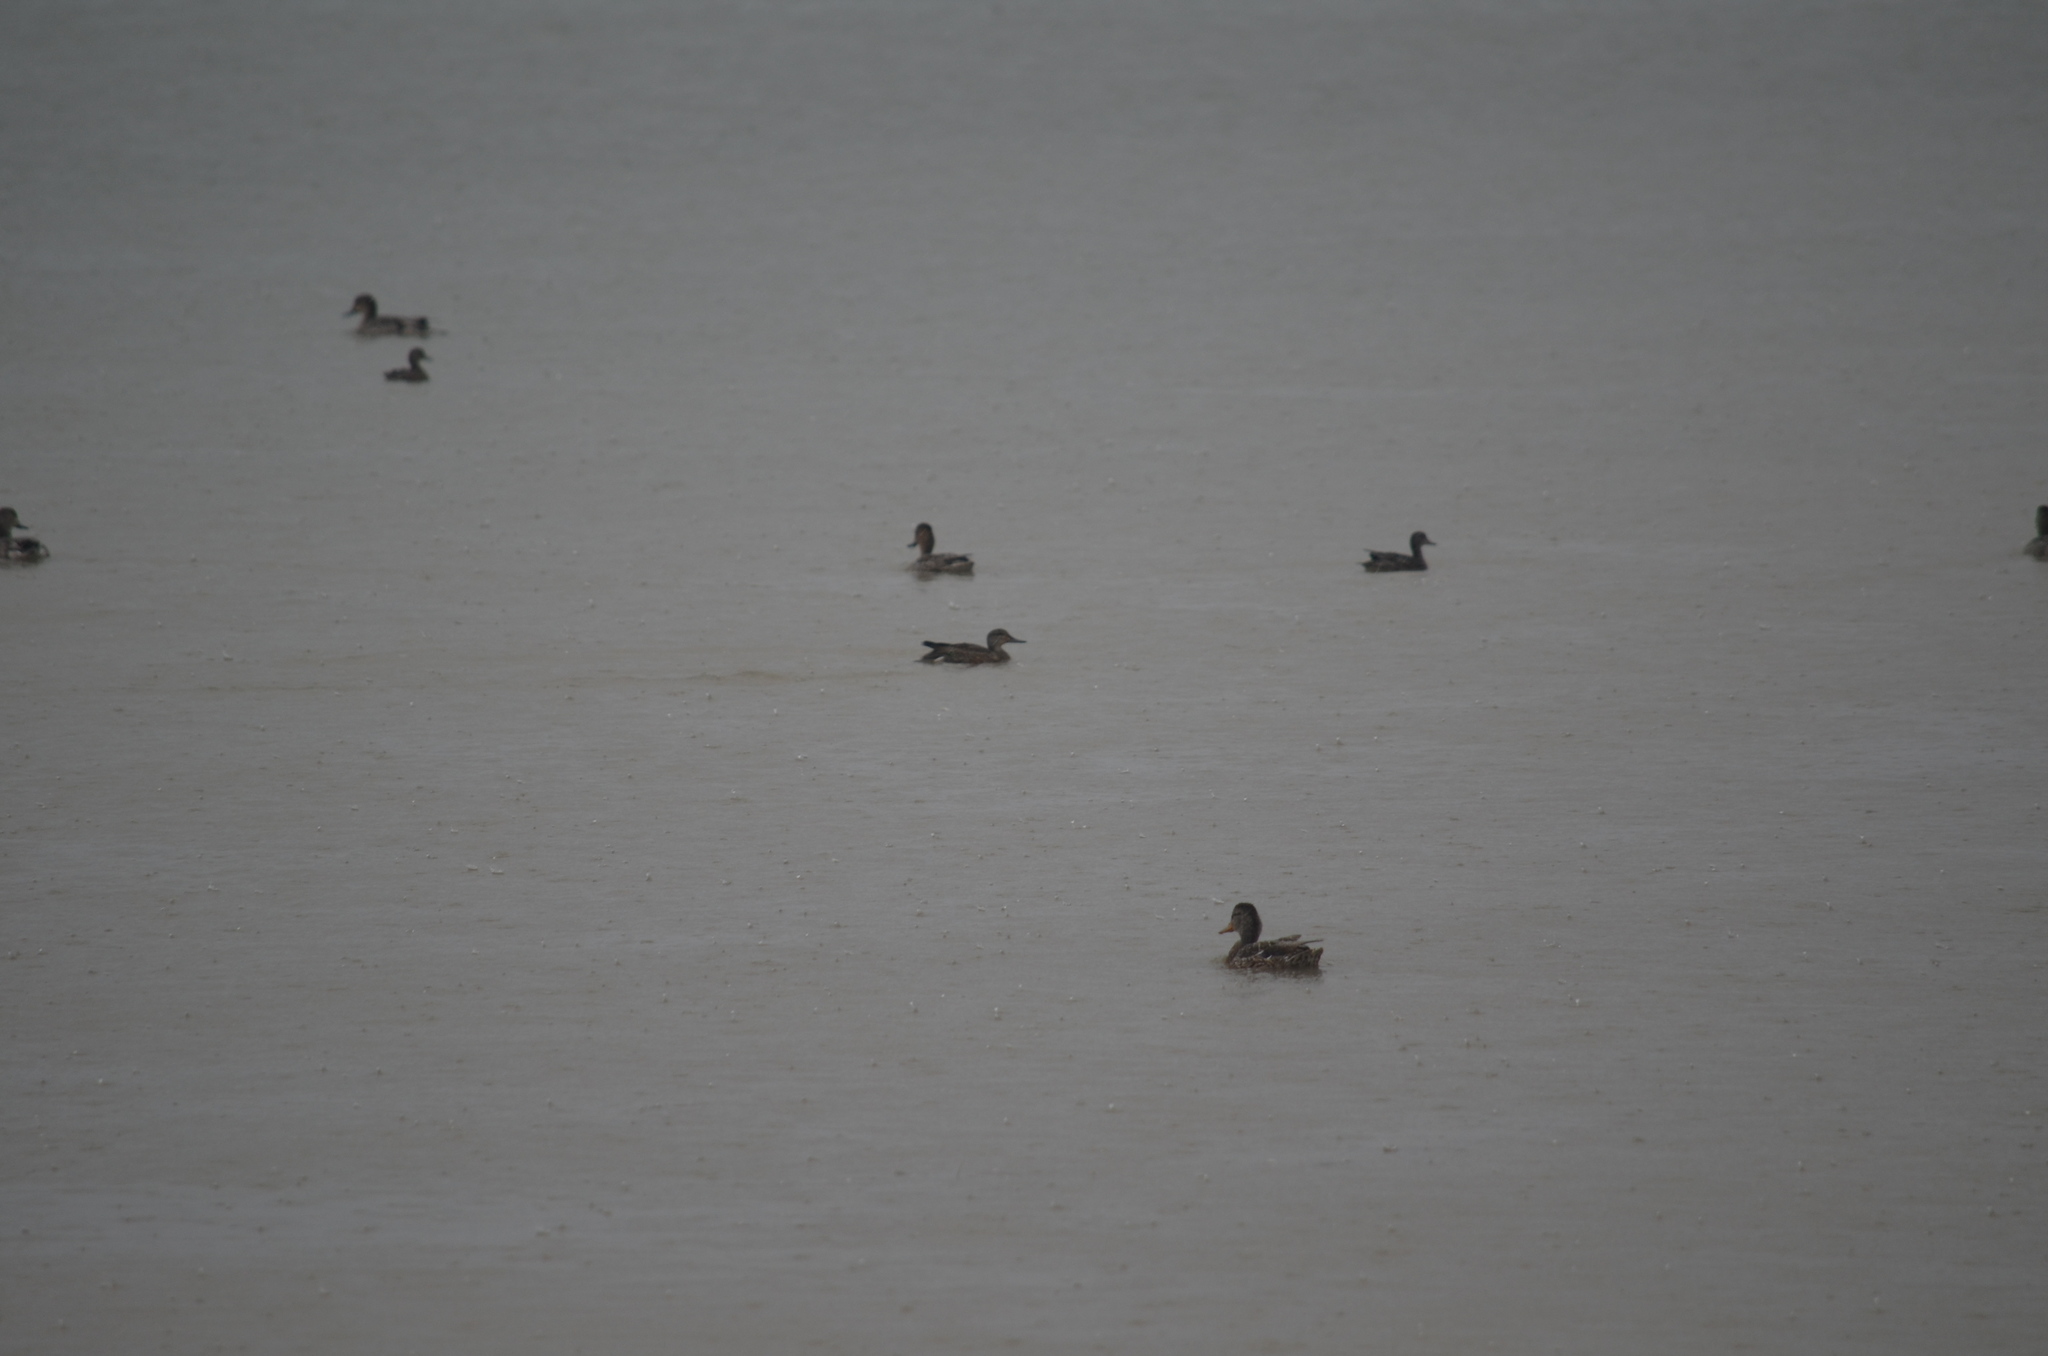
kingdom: Animalia
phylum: Chordata
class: Aves
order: Anseriformes
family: Anatidae
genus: Anas
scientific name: Anas carolinensis
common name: Green-winged teal
